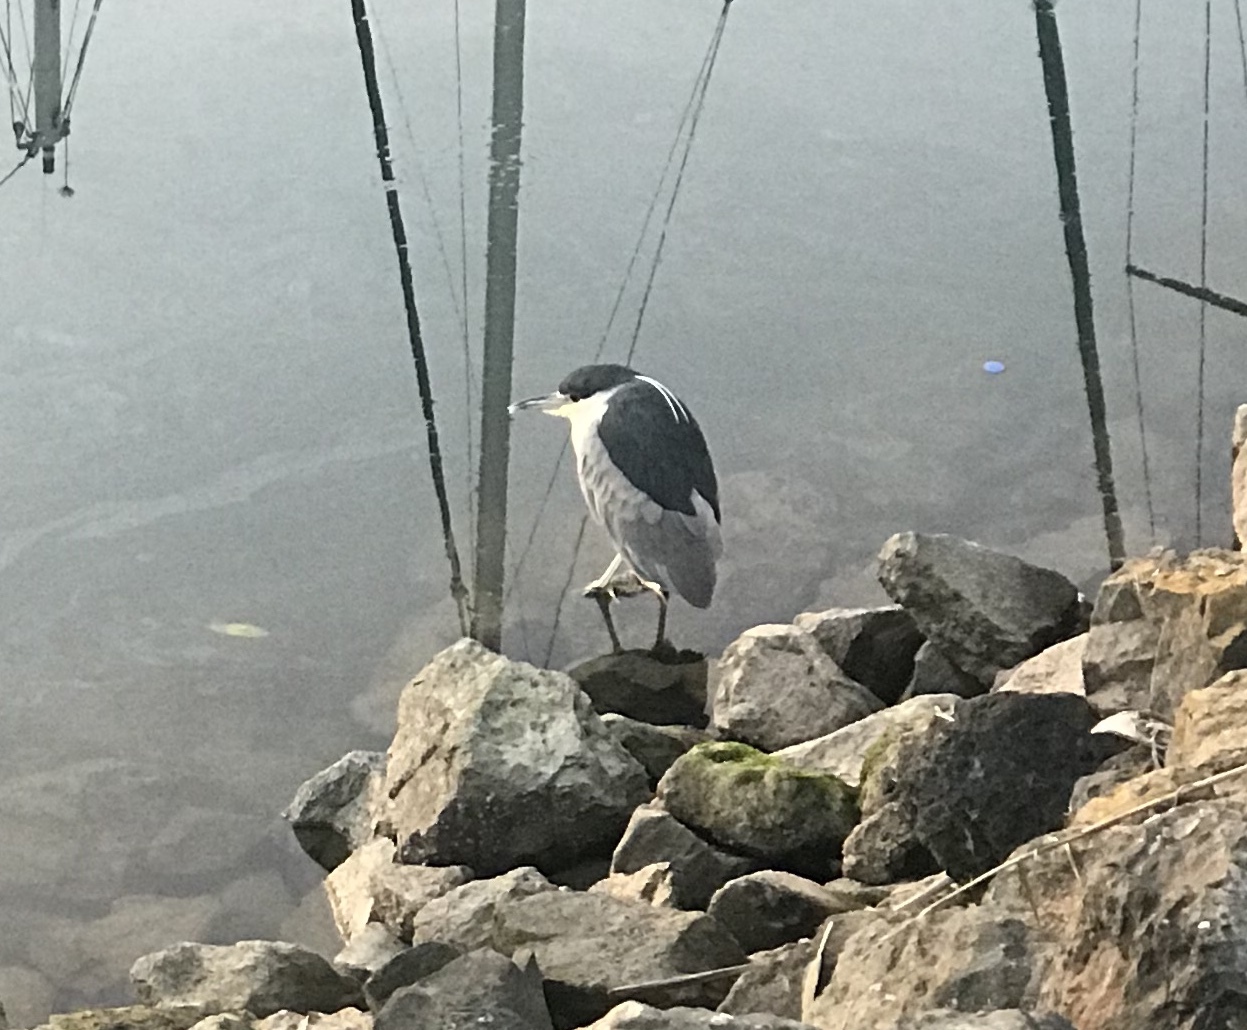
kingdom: Animalia
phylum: Chordata
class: Aves
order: Pelecaniformes
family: Ardeidae
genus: Nycticorax
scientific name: Nycticorax nycticorax
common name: Black-crowned night heron
